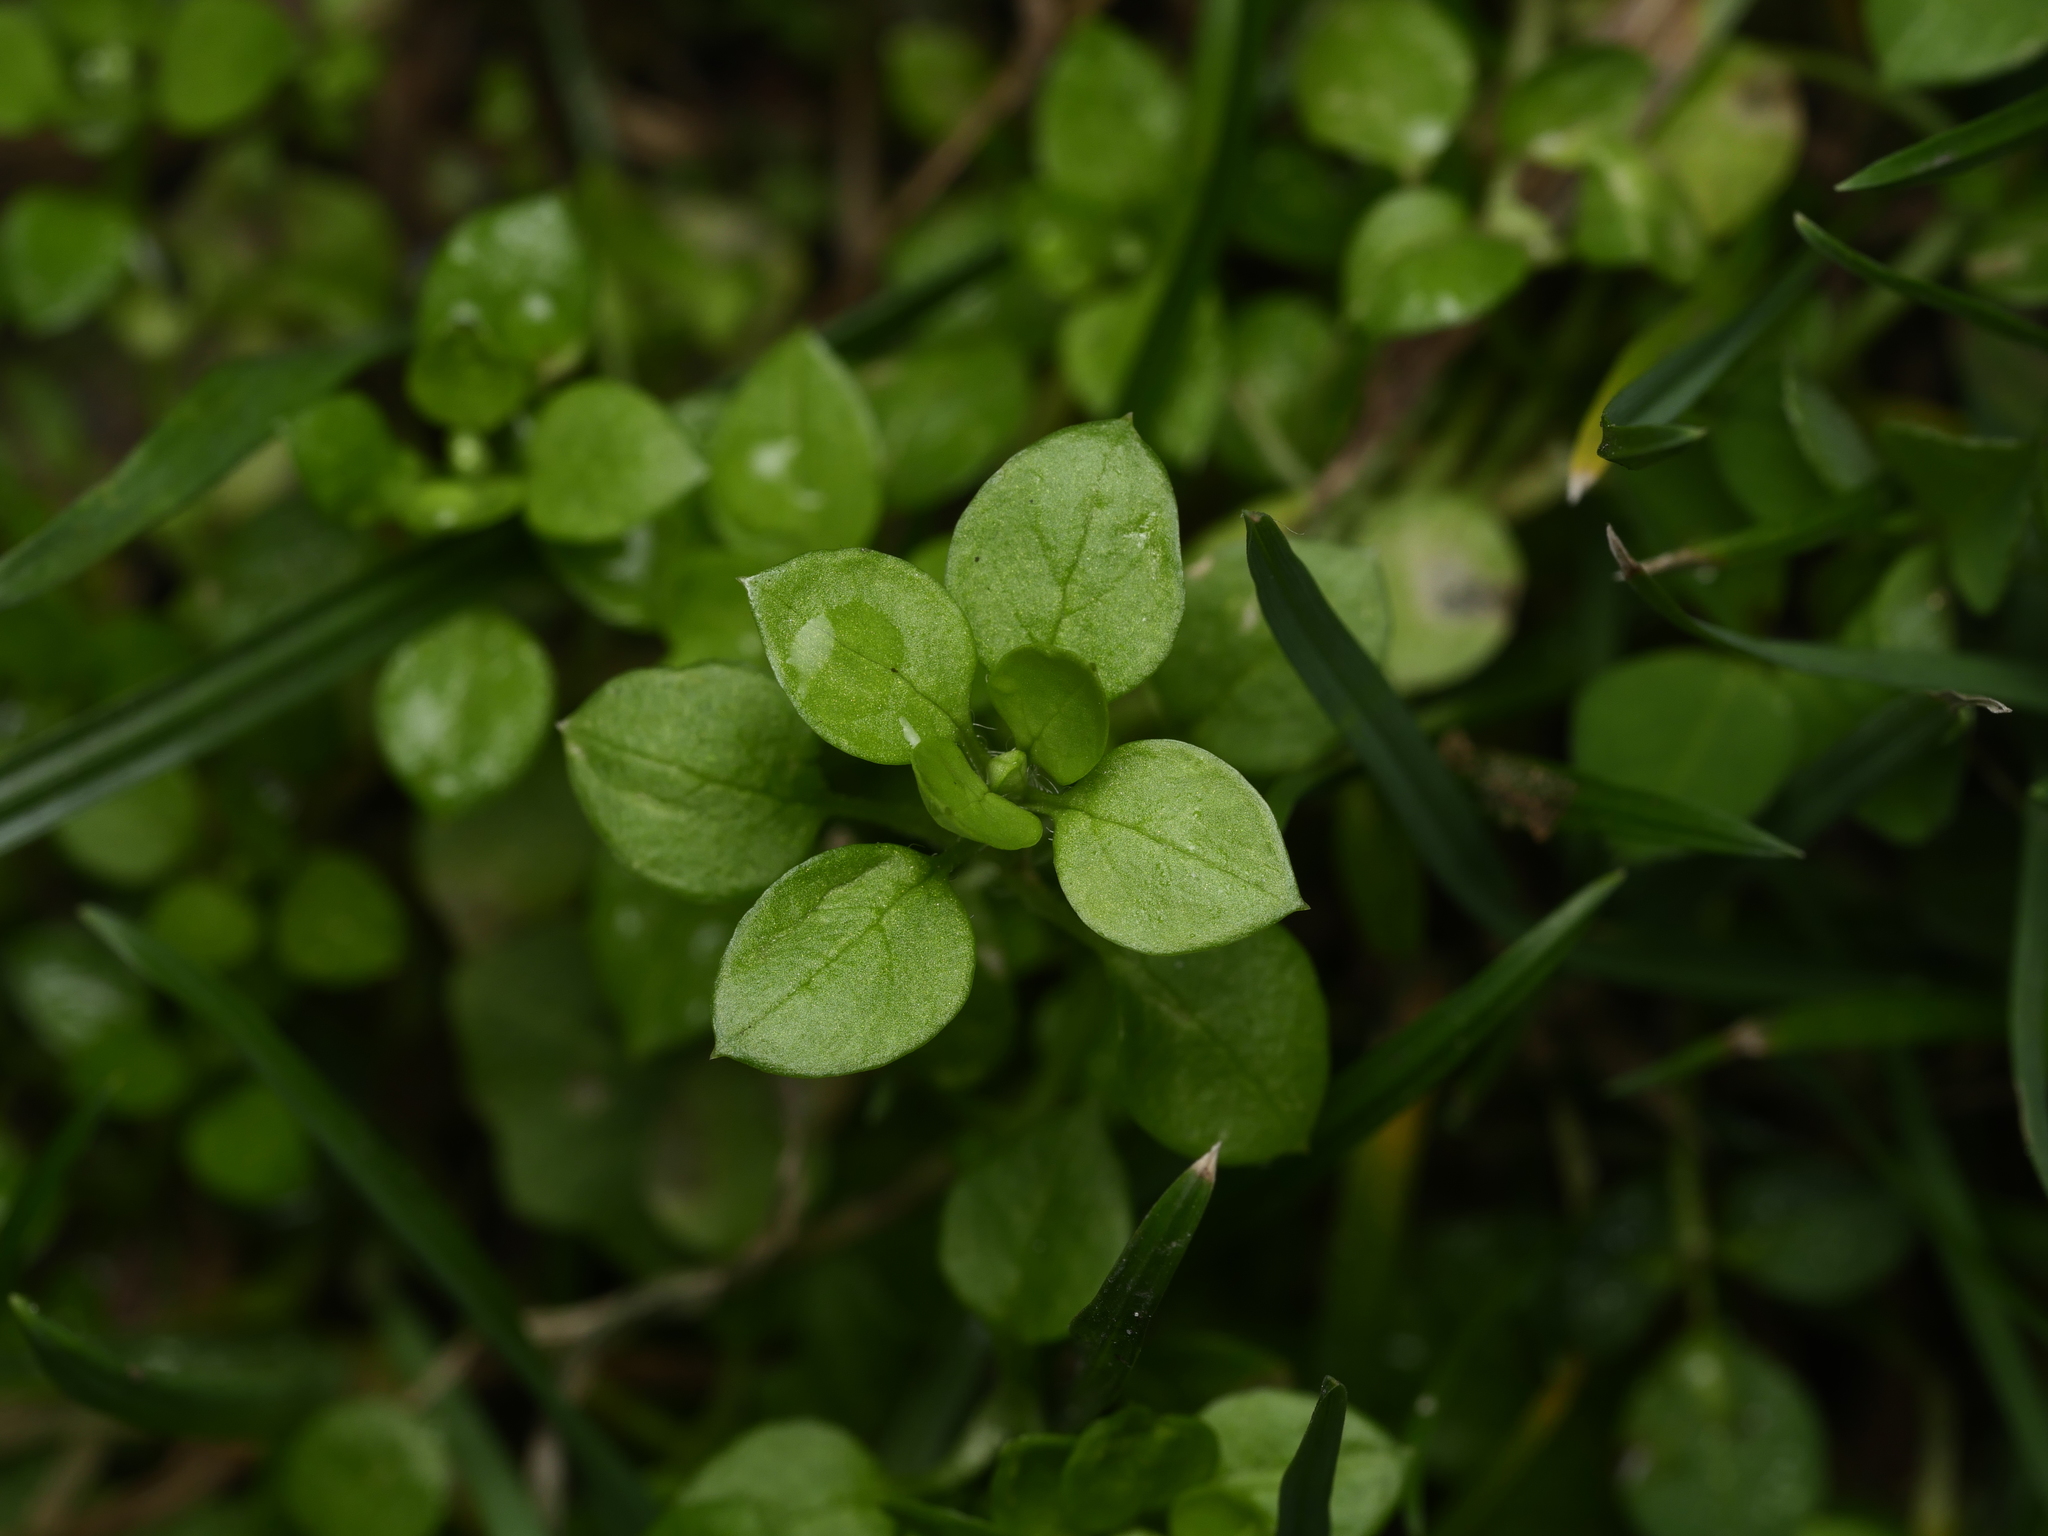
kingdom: Plantae
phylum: Tracheophyta
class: Magnoliopsida
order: Caryophyllales
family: Caryophyllaceae
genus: Stellaria
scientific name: Stellaria media
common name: Common chickweed
